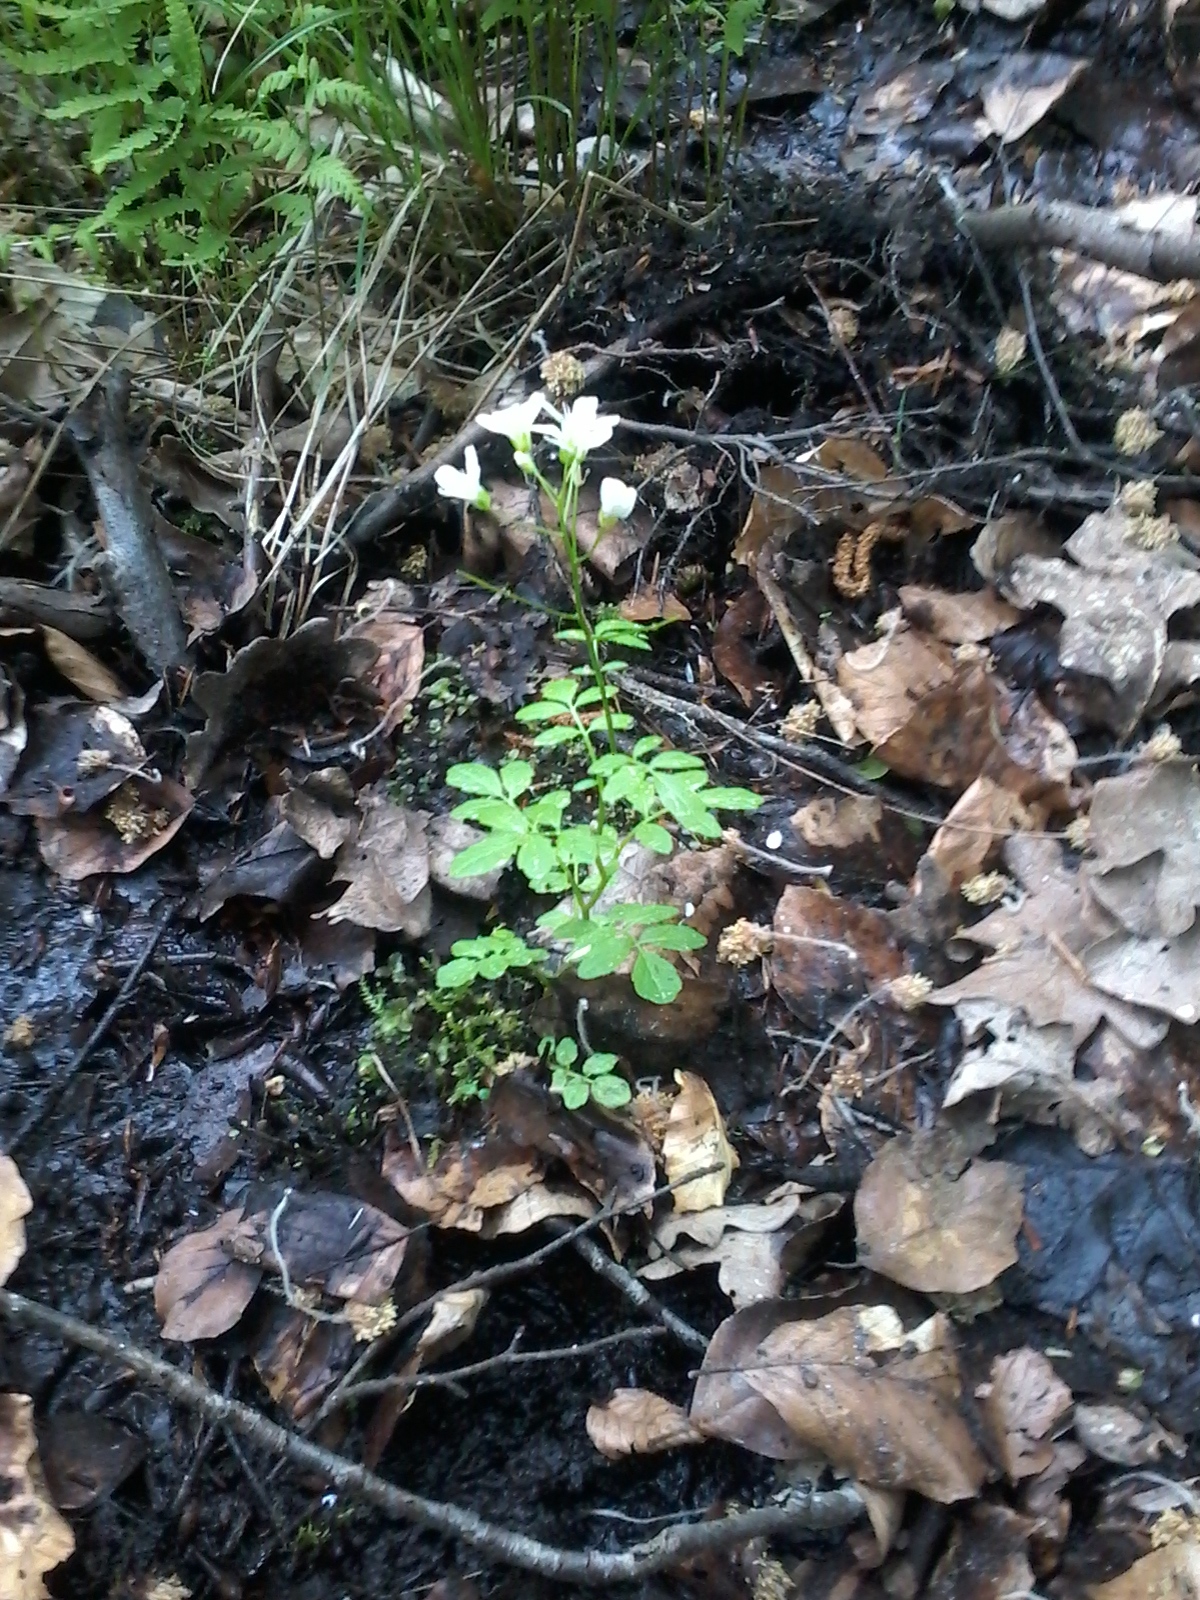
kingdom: Plantae
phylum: Tracheophyta
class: Magnoliopsida
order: Brassicales
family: Brassicaceae
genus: Cardamine
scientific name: Cardamine amara
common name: Large bitter-cress
